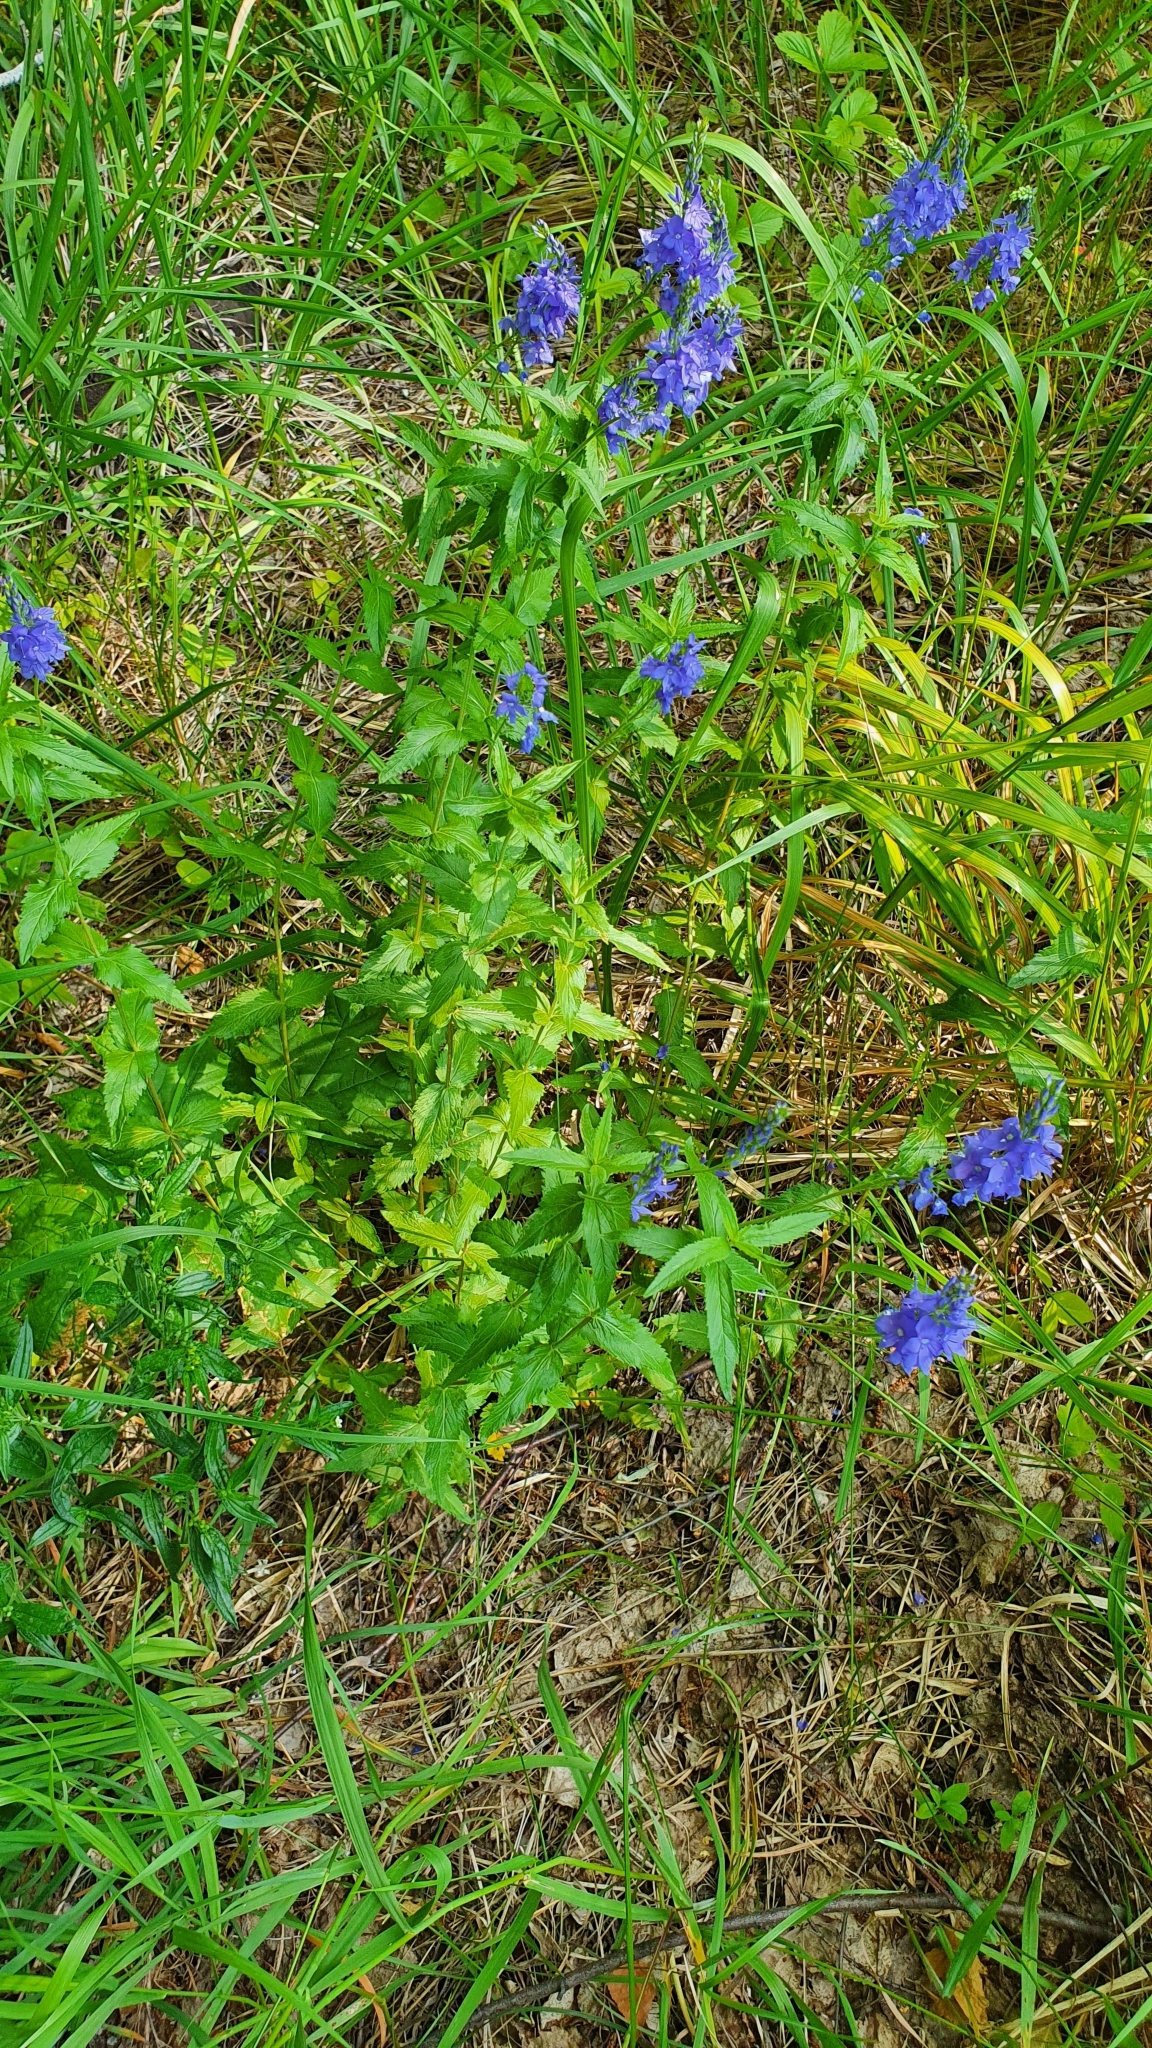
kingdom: Plantae
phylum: Tracheophyta
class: Magnoliopsida
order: Lamiales
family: Plantaginaceae
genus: Veronica
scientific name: Veronica teucrium
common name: Large speedwell
